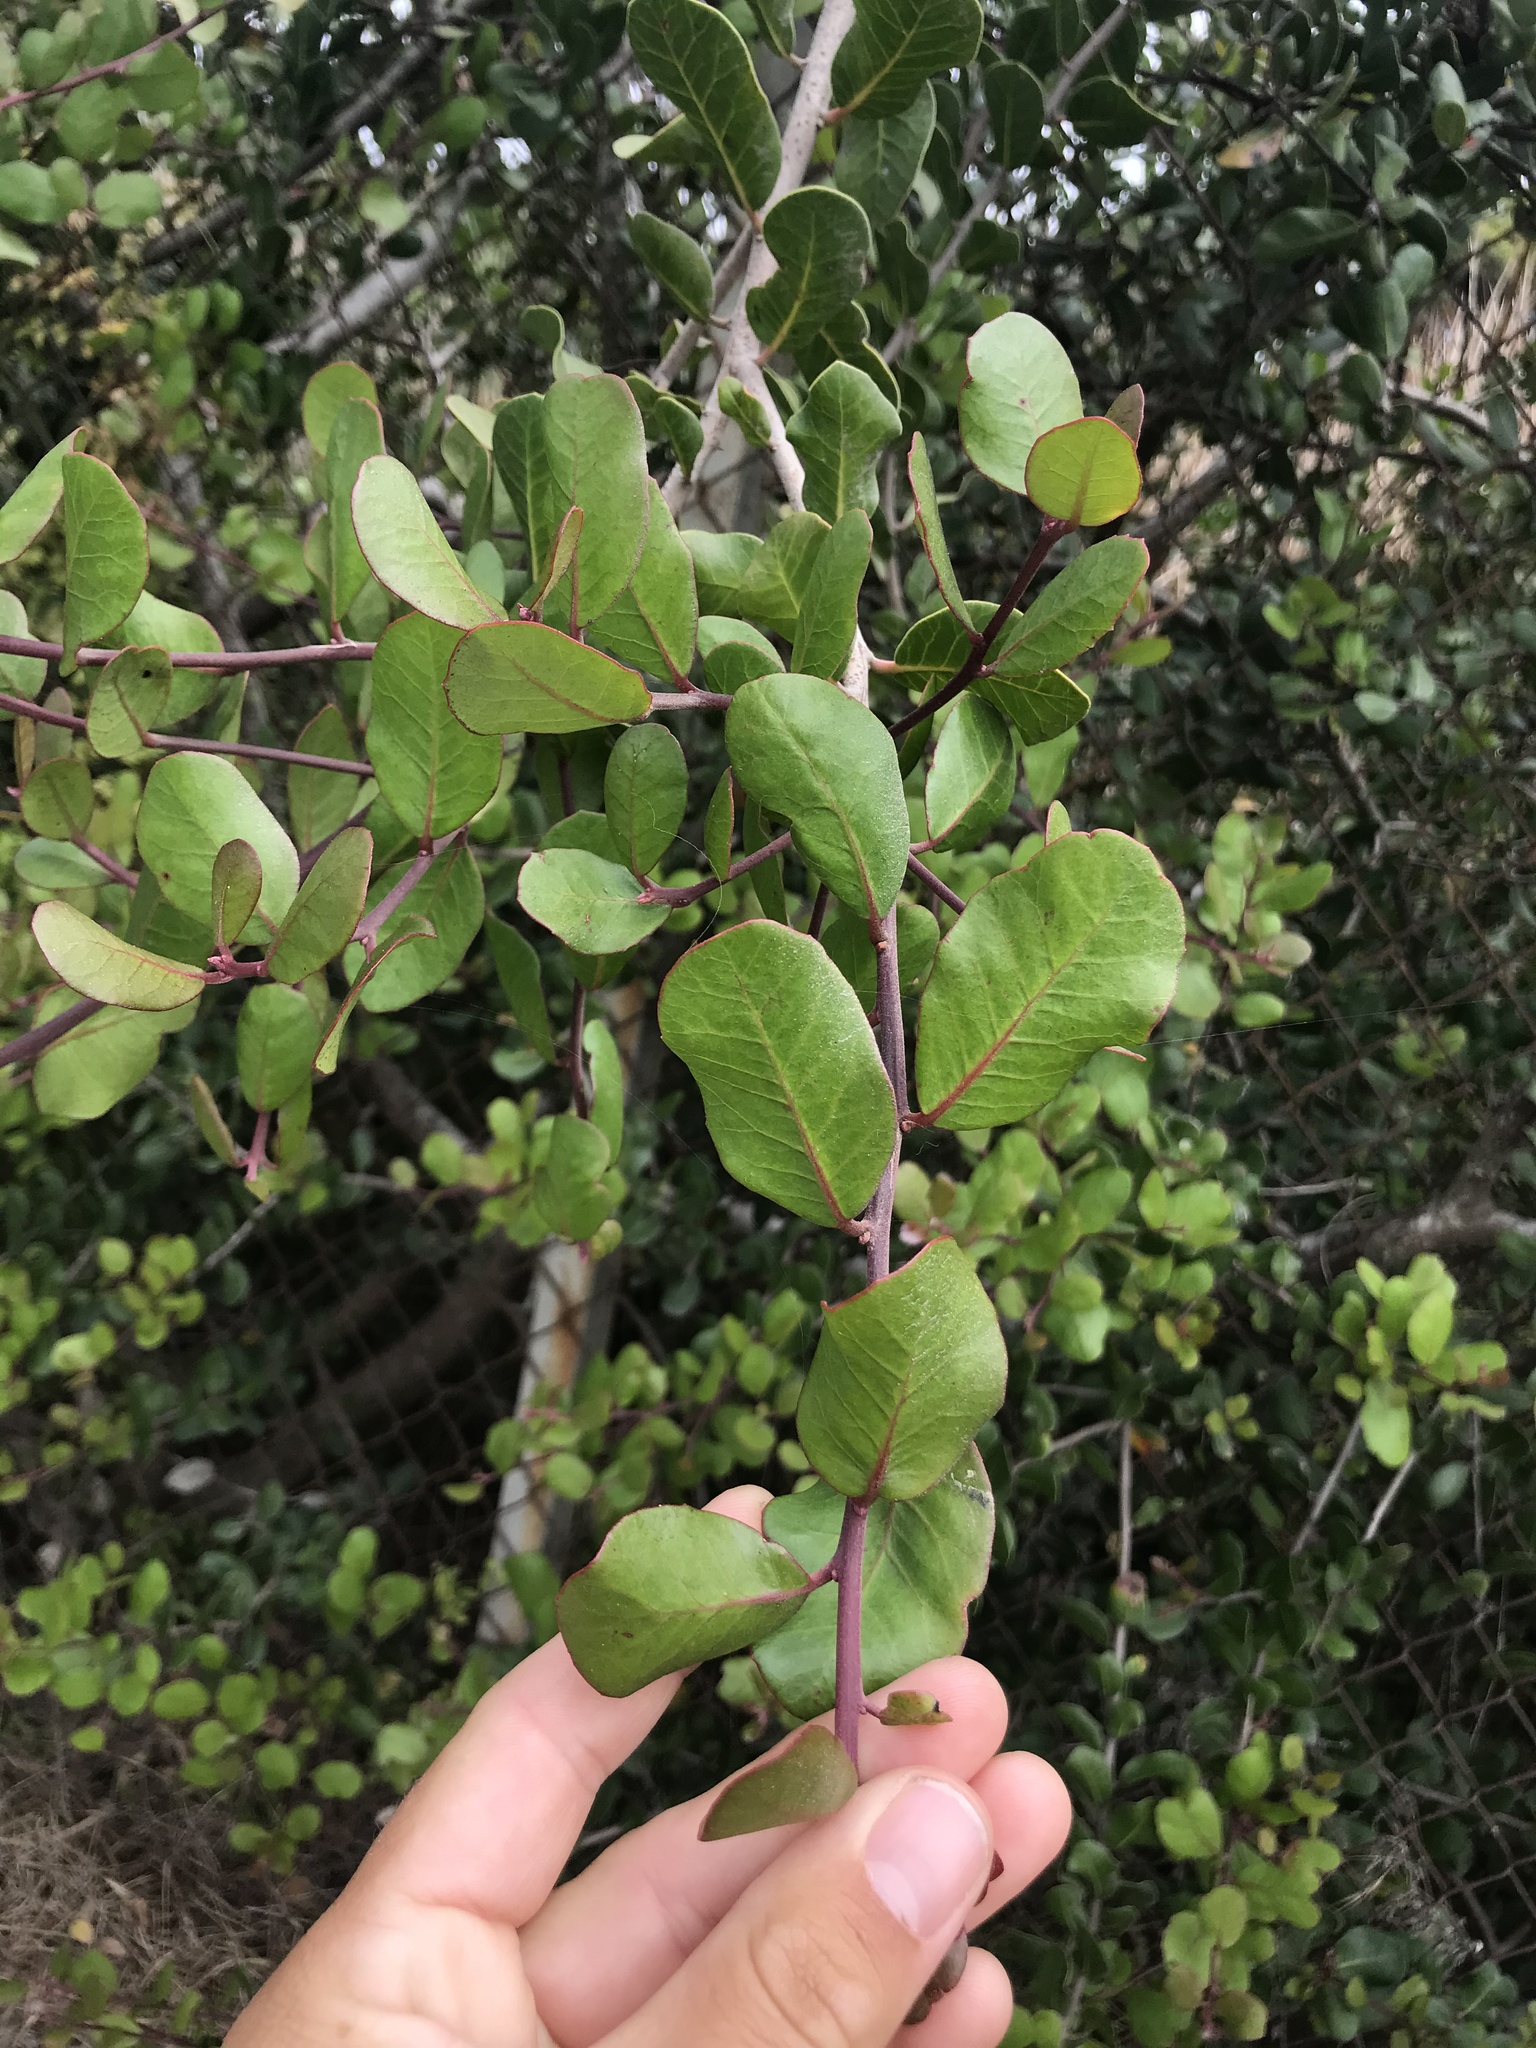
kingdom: Plantae
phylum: Tracheophyta
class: Magnoliopsida
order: Sapindales
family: Anacardiaceae
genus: Rhus
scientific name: Rhus integrifolia
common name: Lemonade sumac
